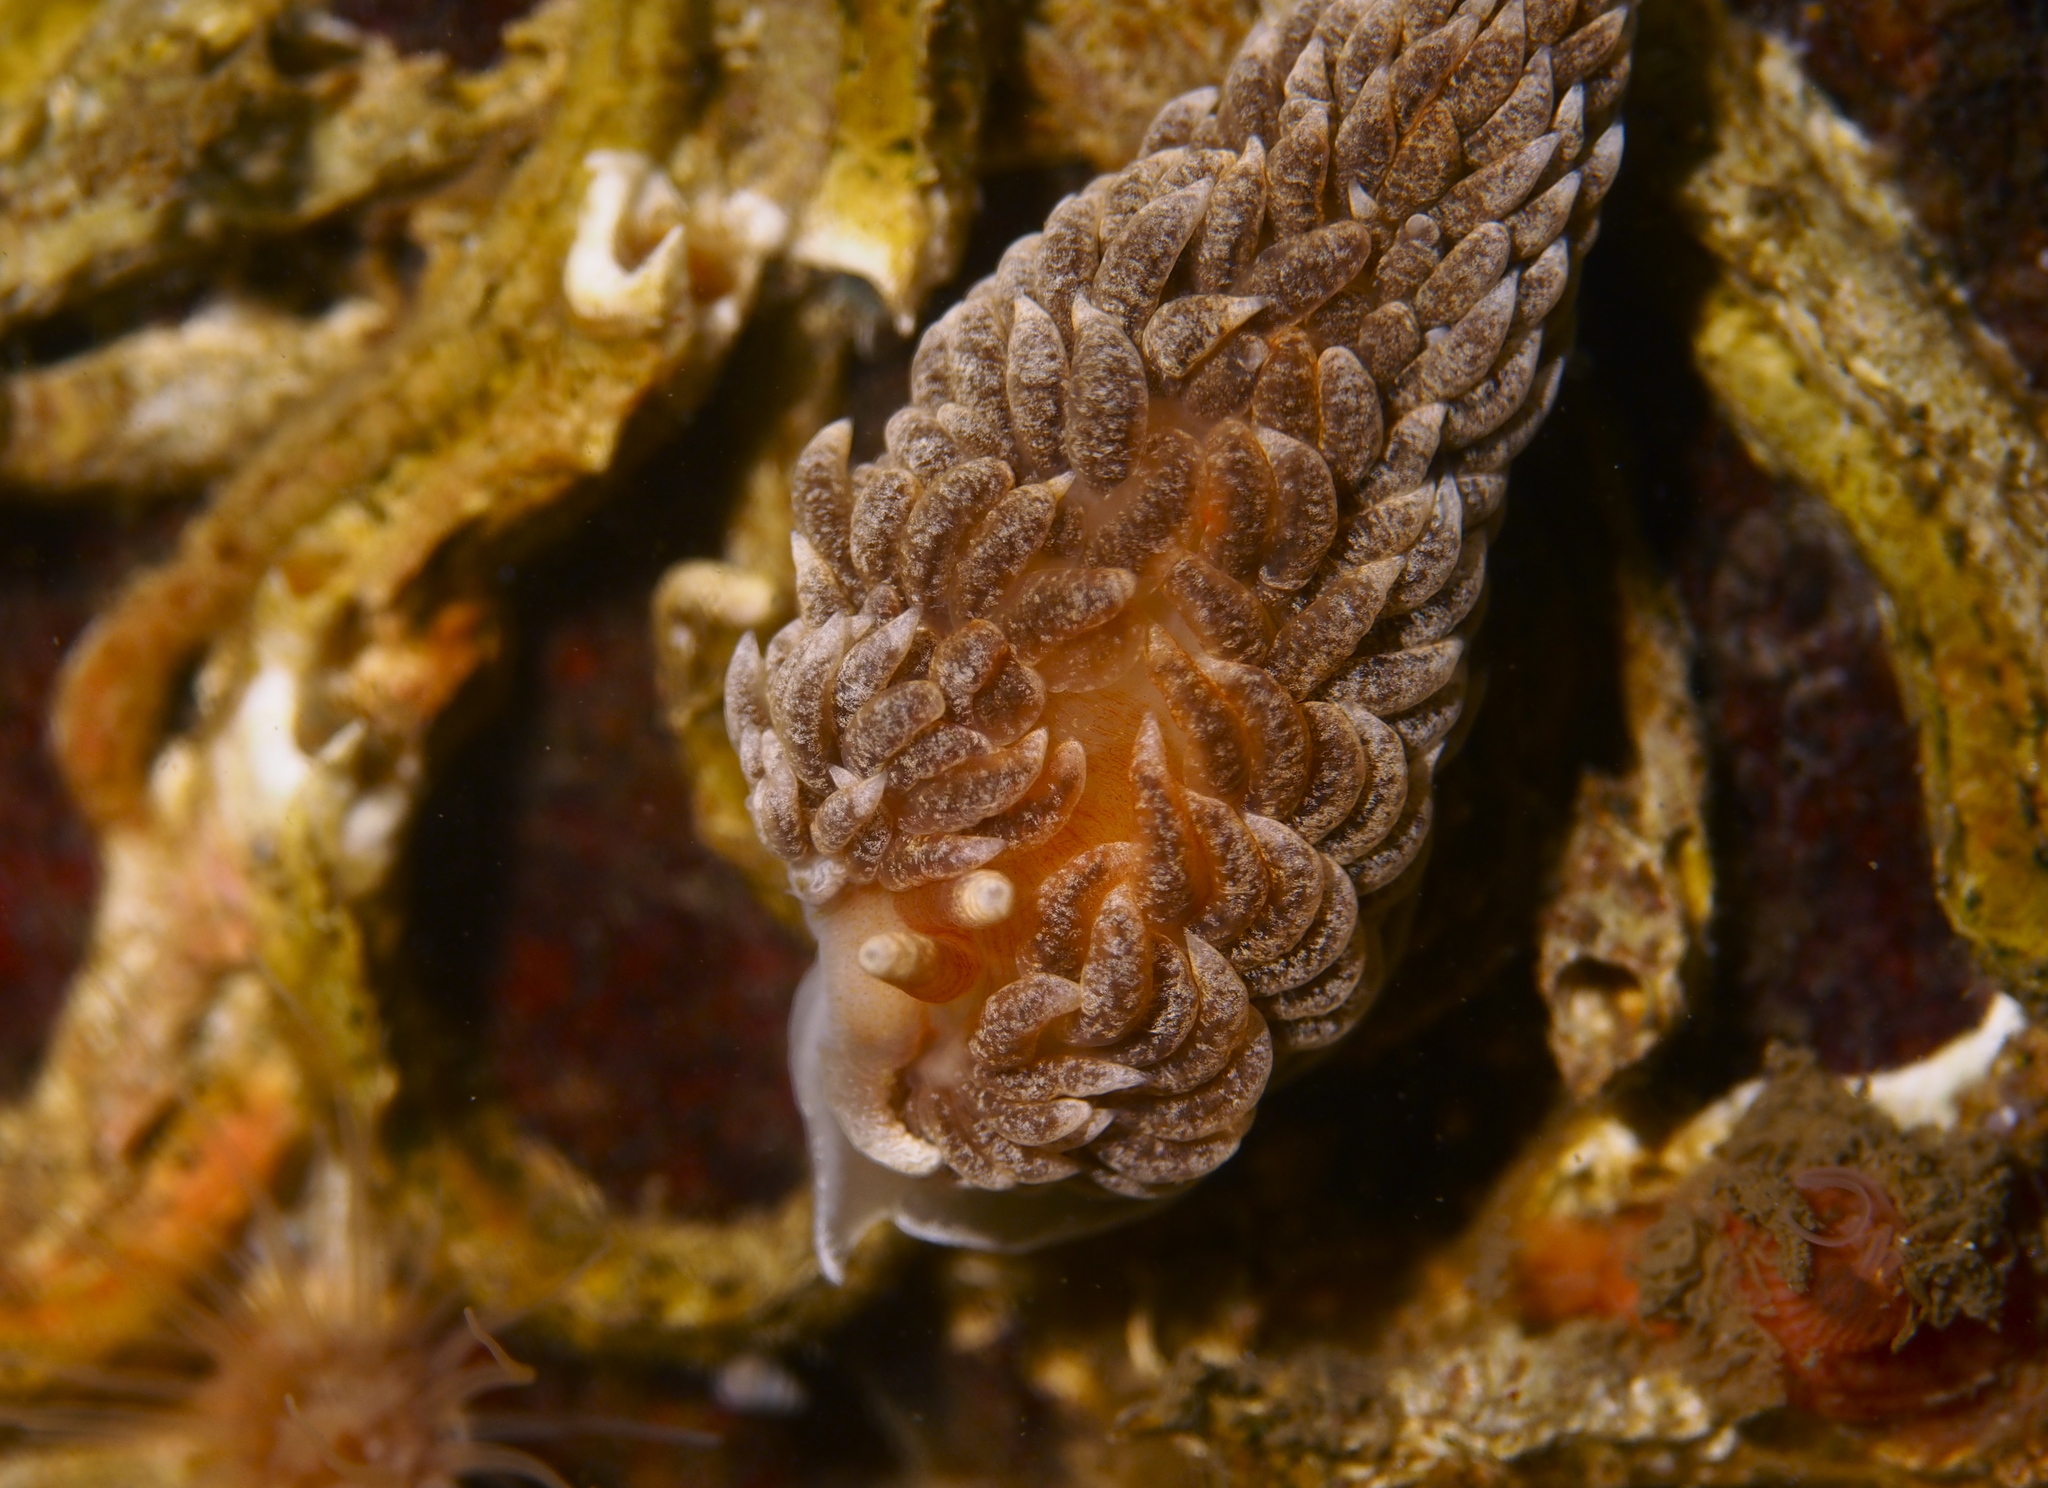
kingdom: Animalia
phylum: Mollusca
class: Gastropoda
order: Nudibranchia
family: Aeolidiidae
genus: Aeolidiella
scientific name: Aeolidiella glauca
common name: Orange-brown aeolid
